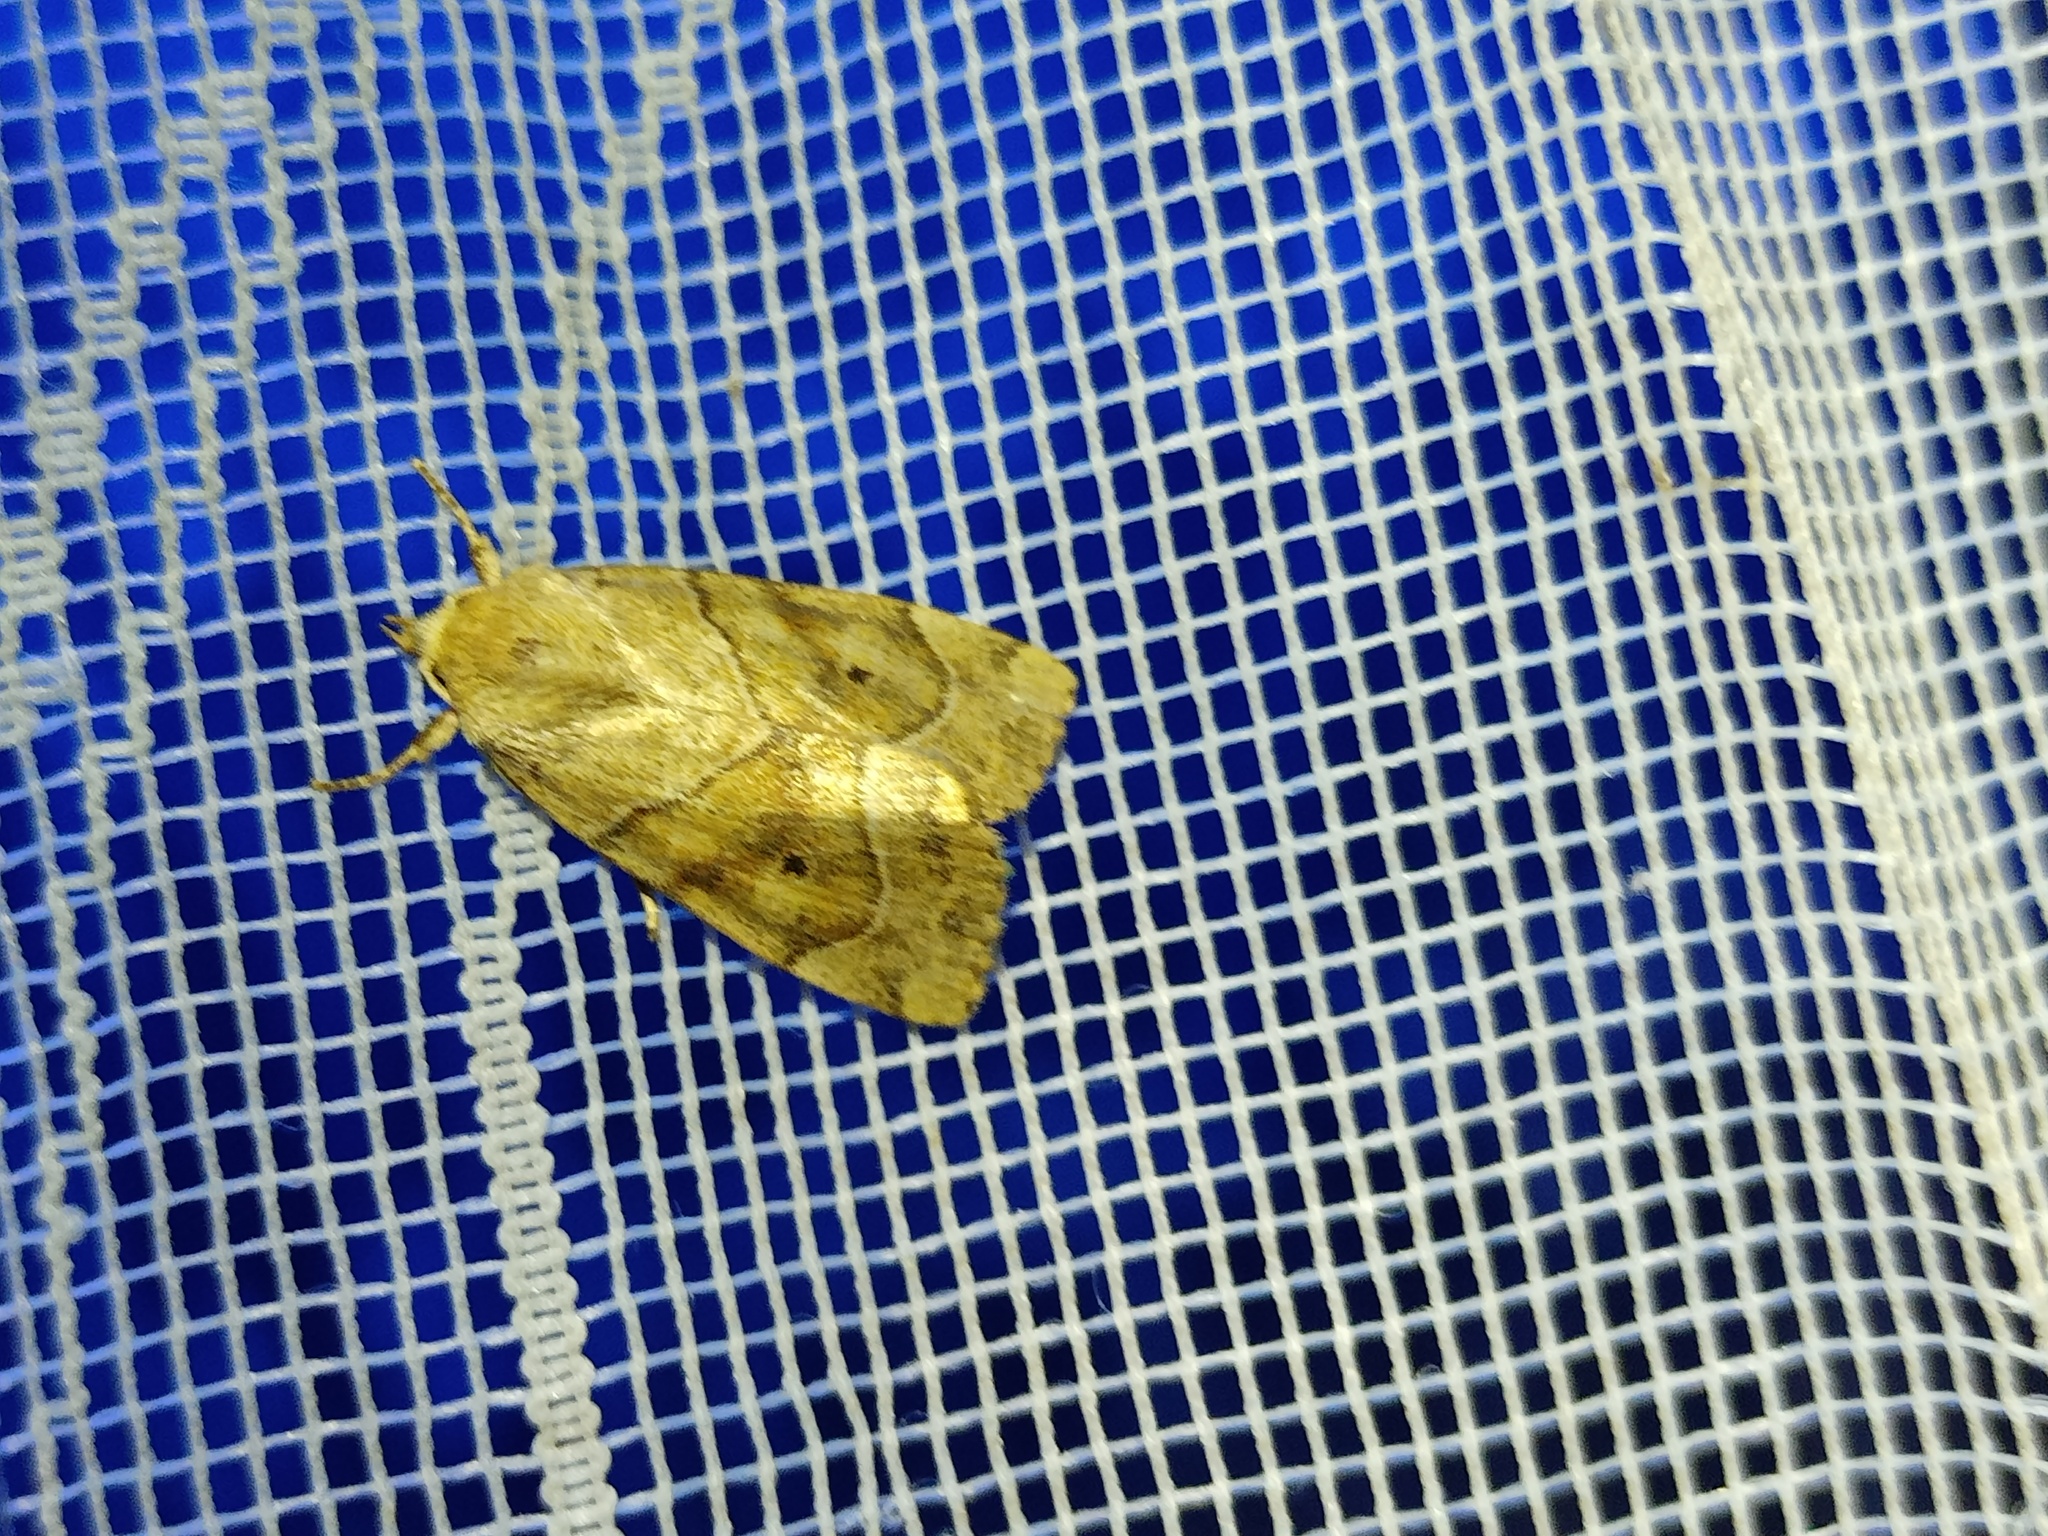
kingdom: Animalia
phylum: Arthropoda
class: Insecta
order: Lepidoptera
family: Noctuidae
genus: Cosmia
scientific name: Cosmia trapezina
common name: Dun-bar
